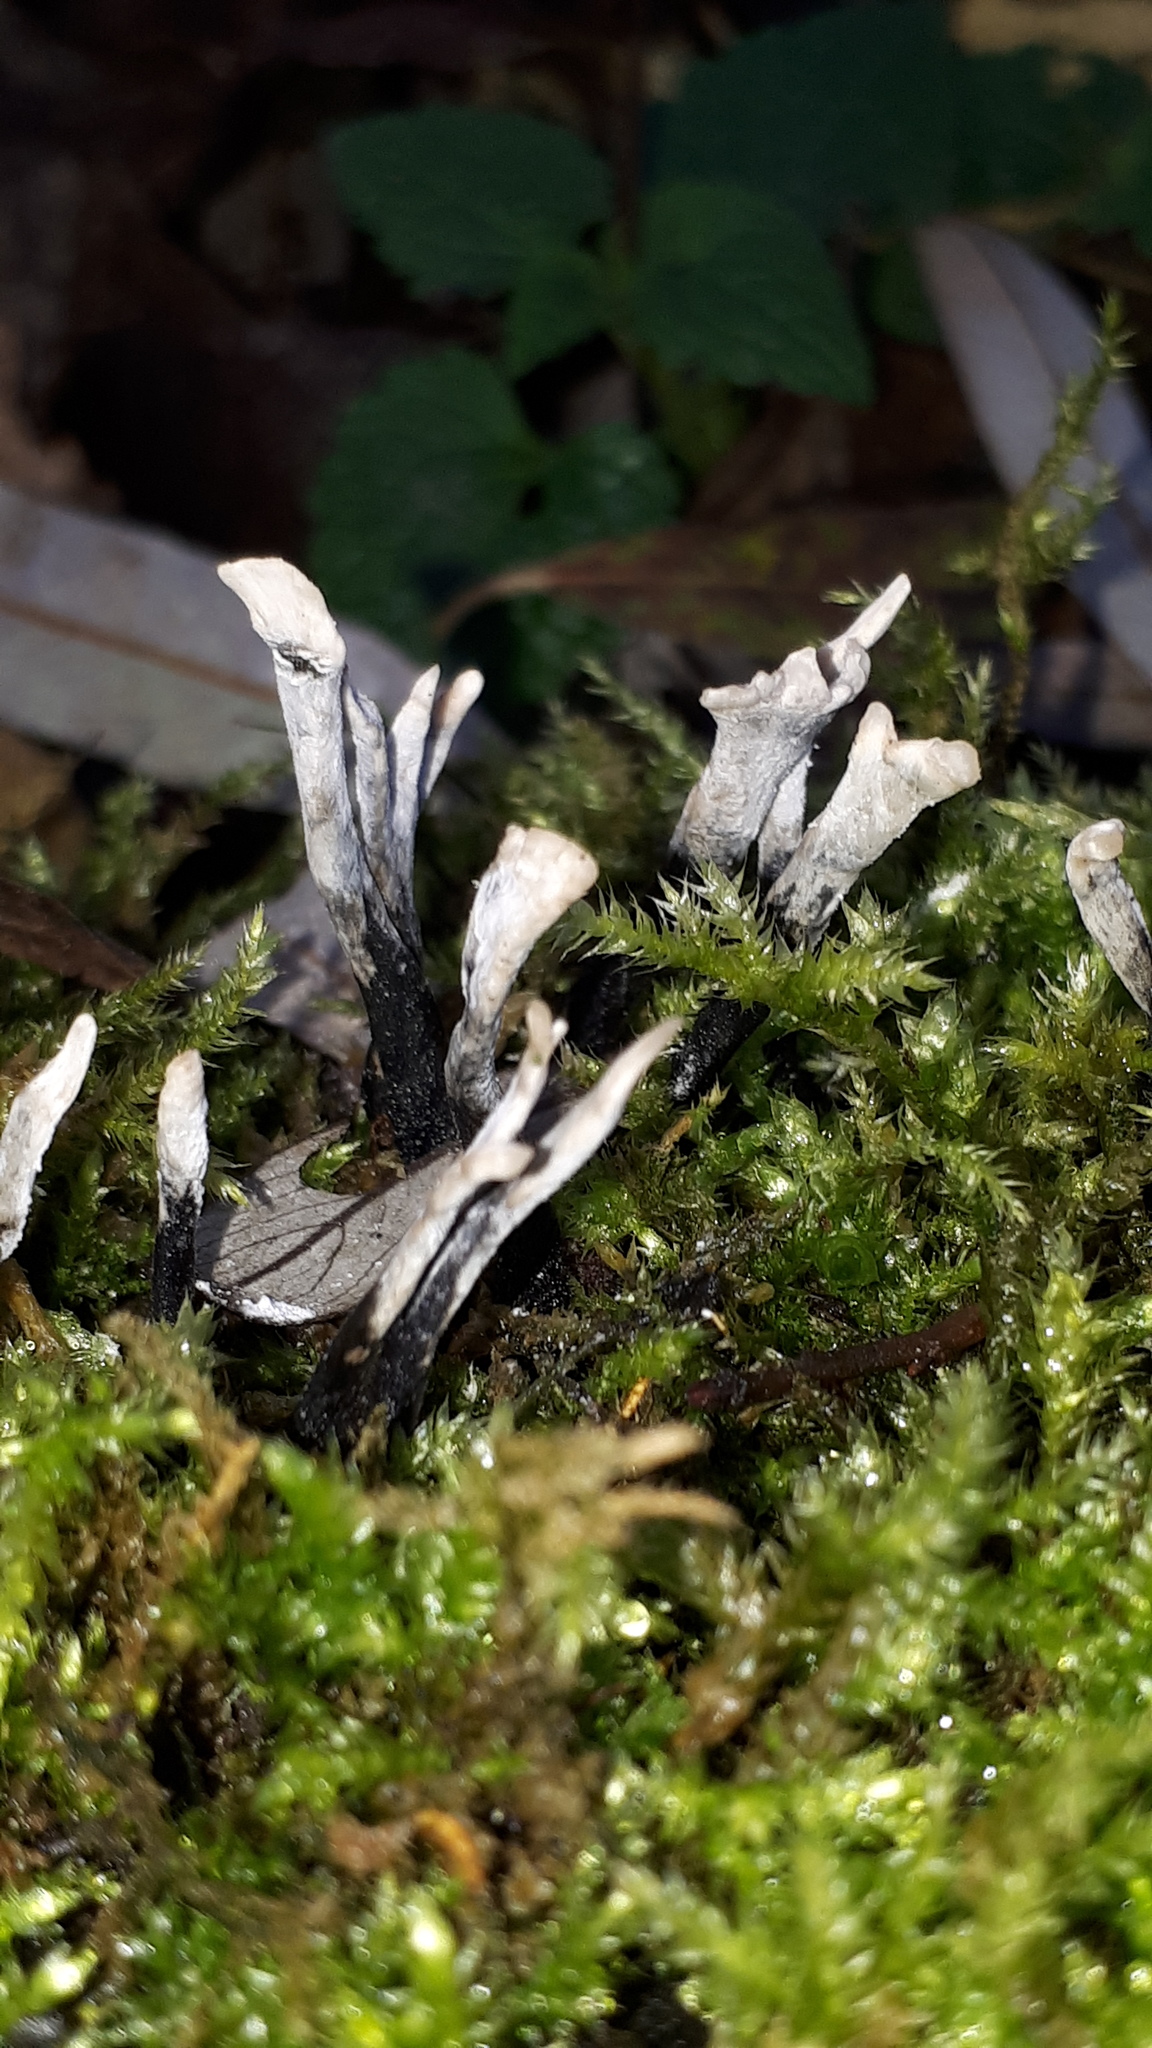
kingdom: Fungi
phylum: Ascomycota
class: Sordariomycetes
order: Xylariales
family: Xylariaceae
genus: Xylaria
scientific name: Xylaria hypoxylon
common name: Candle-snuff fungus
